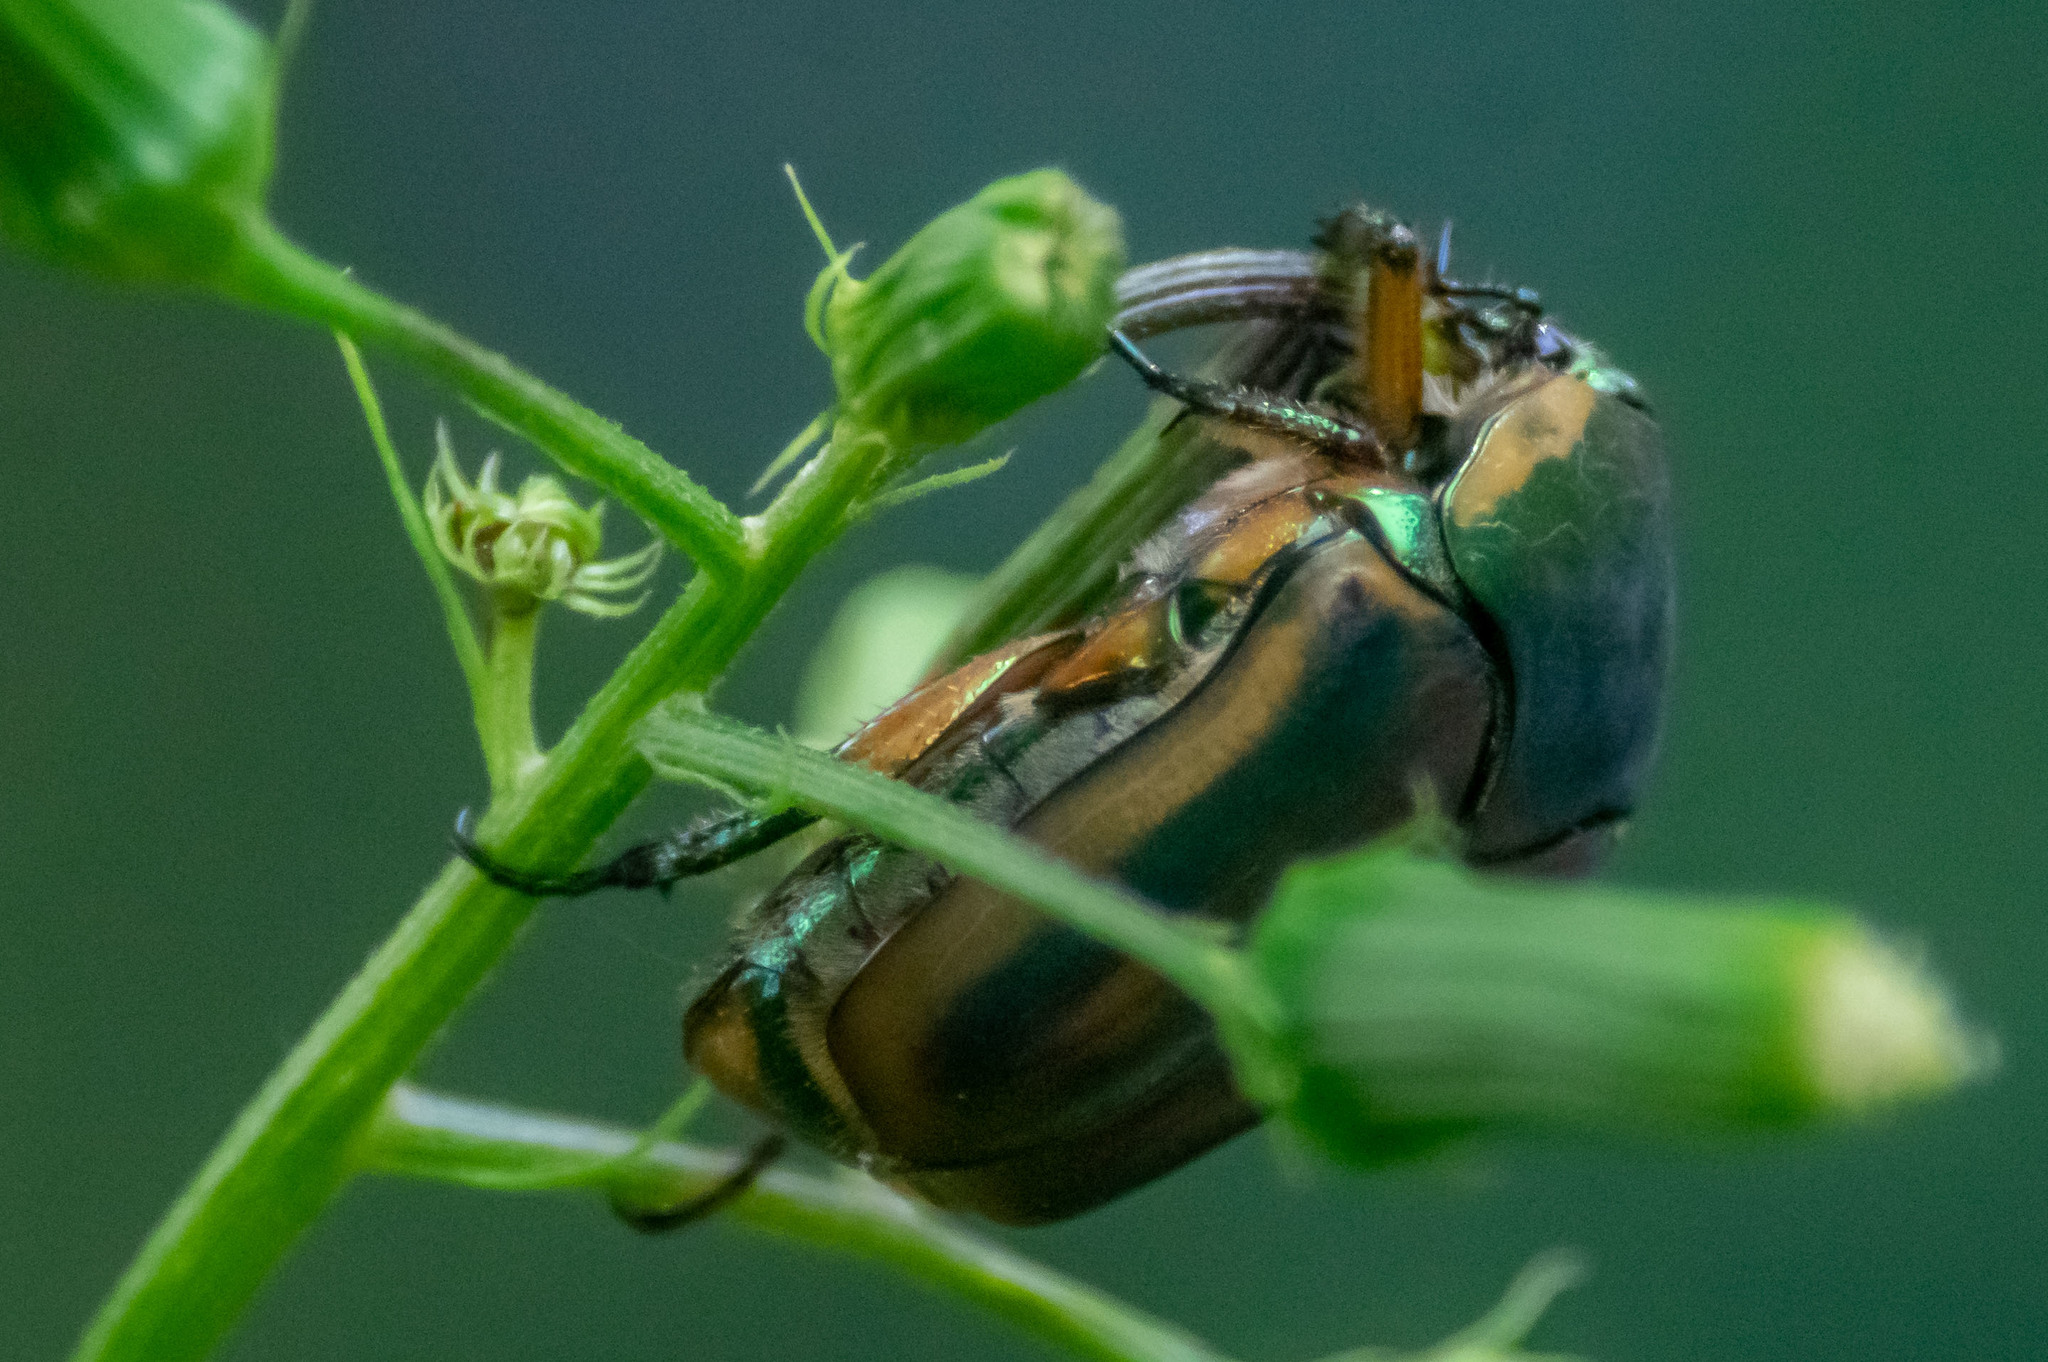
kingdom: Animalia
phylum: Arthropoda
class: Insecta
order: Coleoptera
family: Scarabaeidae
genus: Cotinis
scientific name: Cotinis nitida
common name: Common green june beetle
